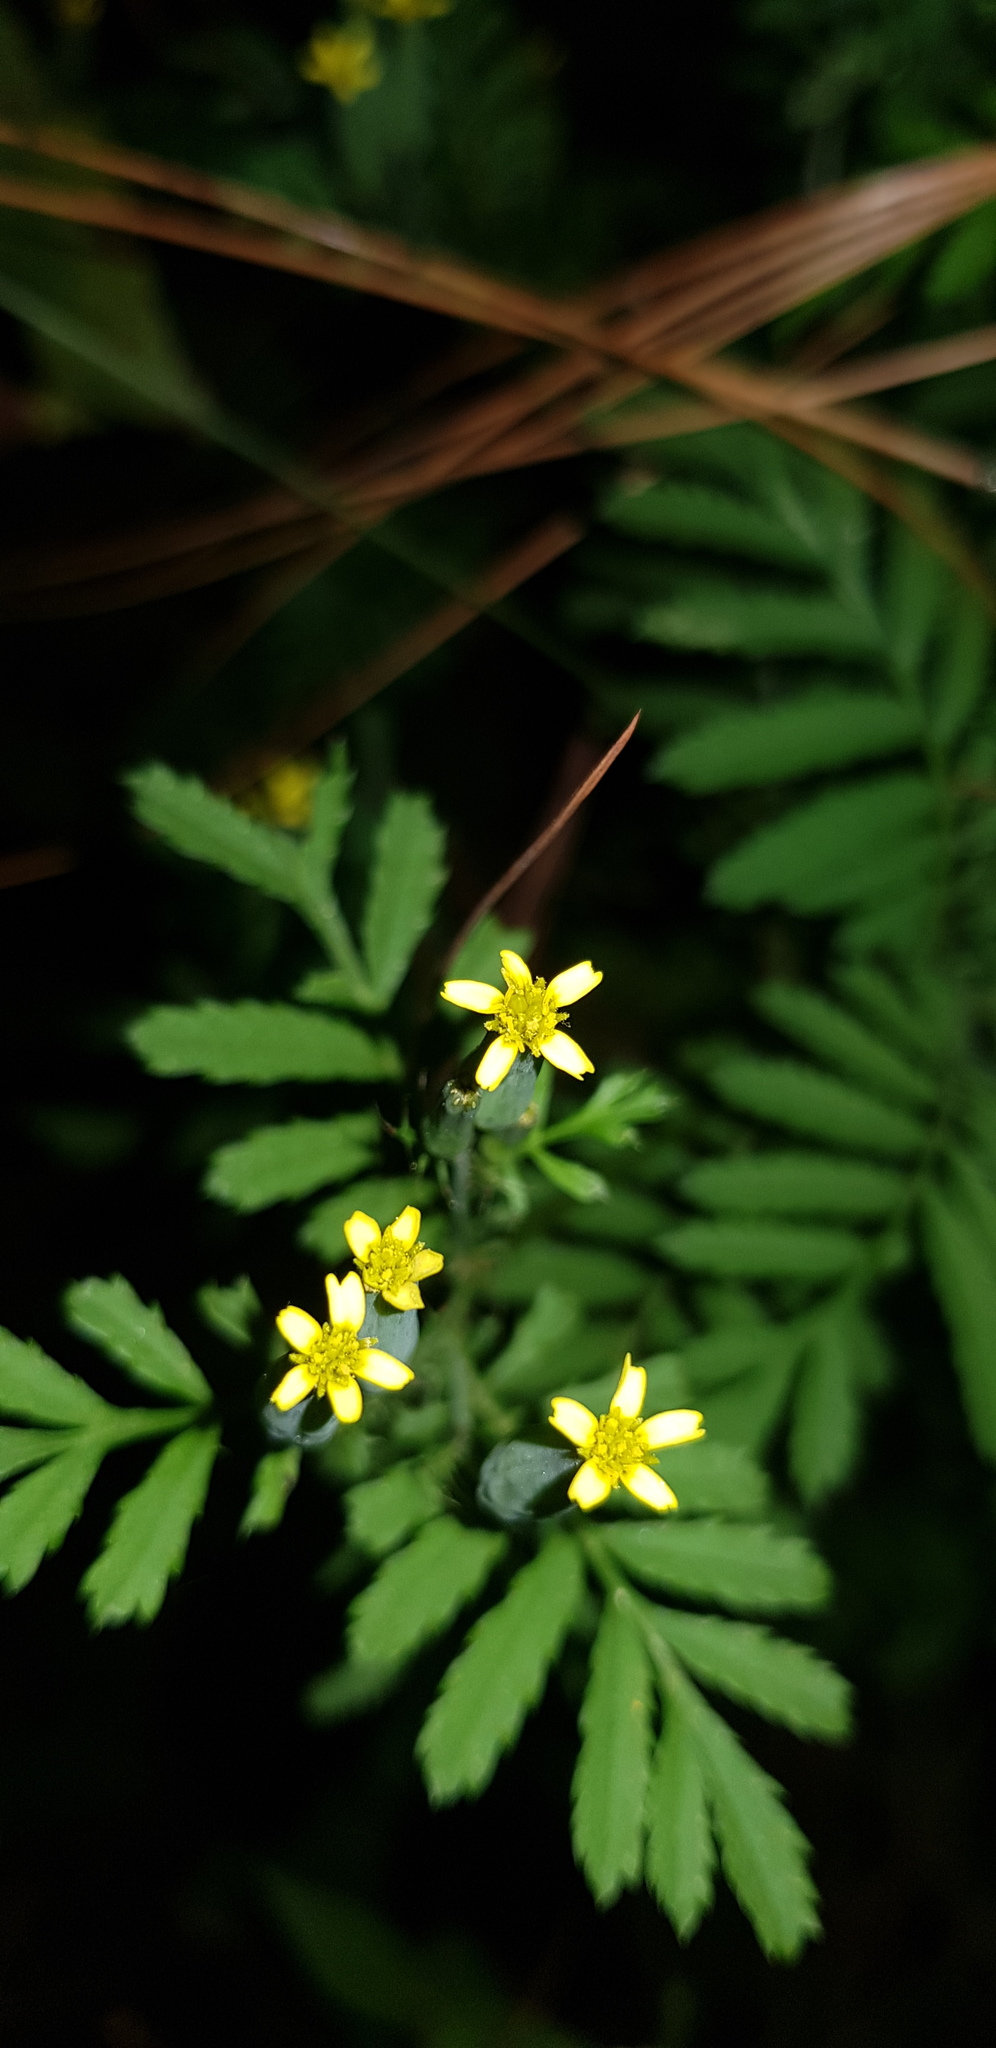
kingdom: Plantae
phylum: Tracheophyta
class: Magnoliopsida
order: Asterales
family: Asteraceae
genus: Tagetes
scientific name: Tagetes foetidissima
